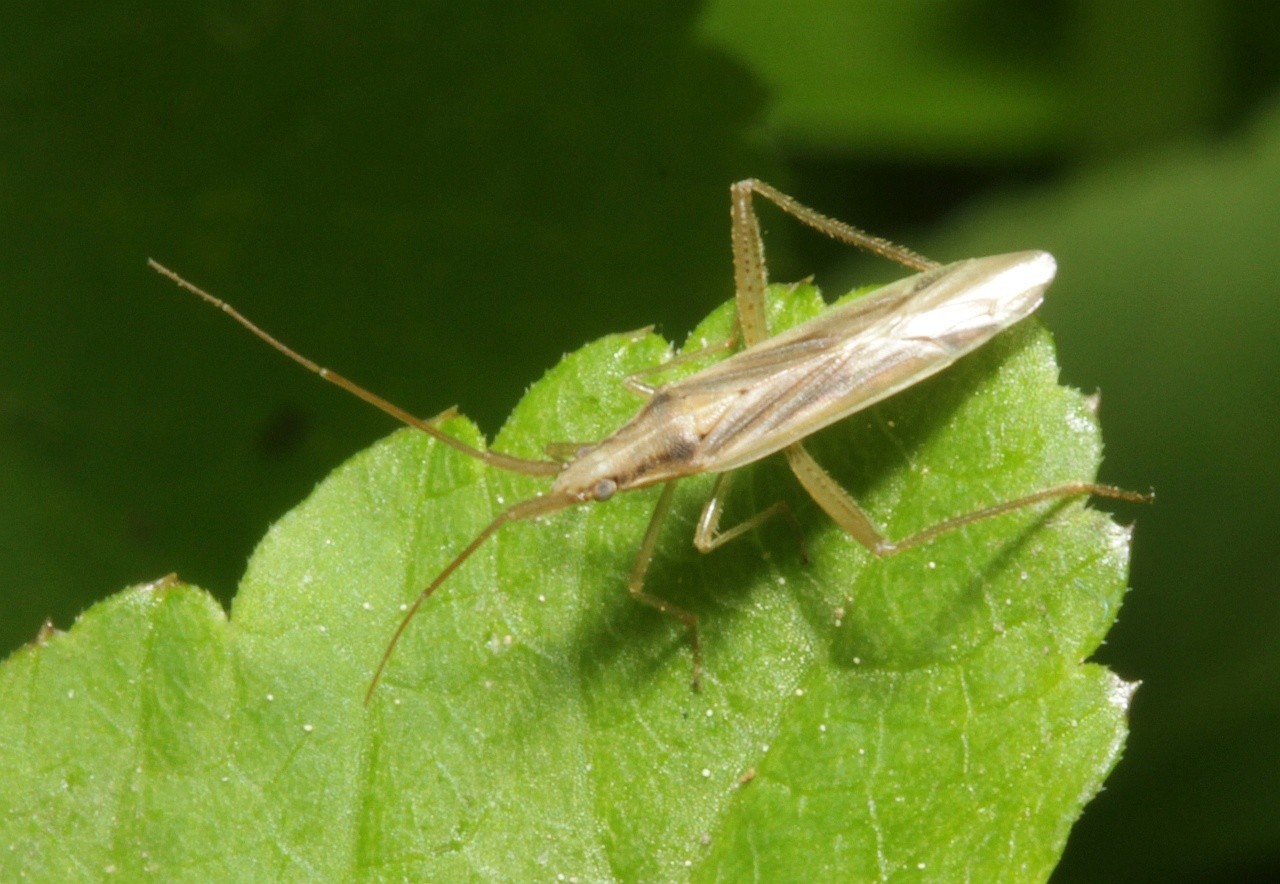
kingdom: Animalia
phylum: Arthropoda
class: Insecta
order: Hemiptera
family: Miridae
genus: Stenodema
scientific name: Stenodema laevigata
